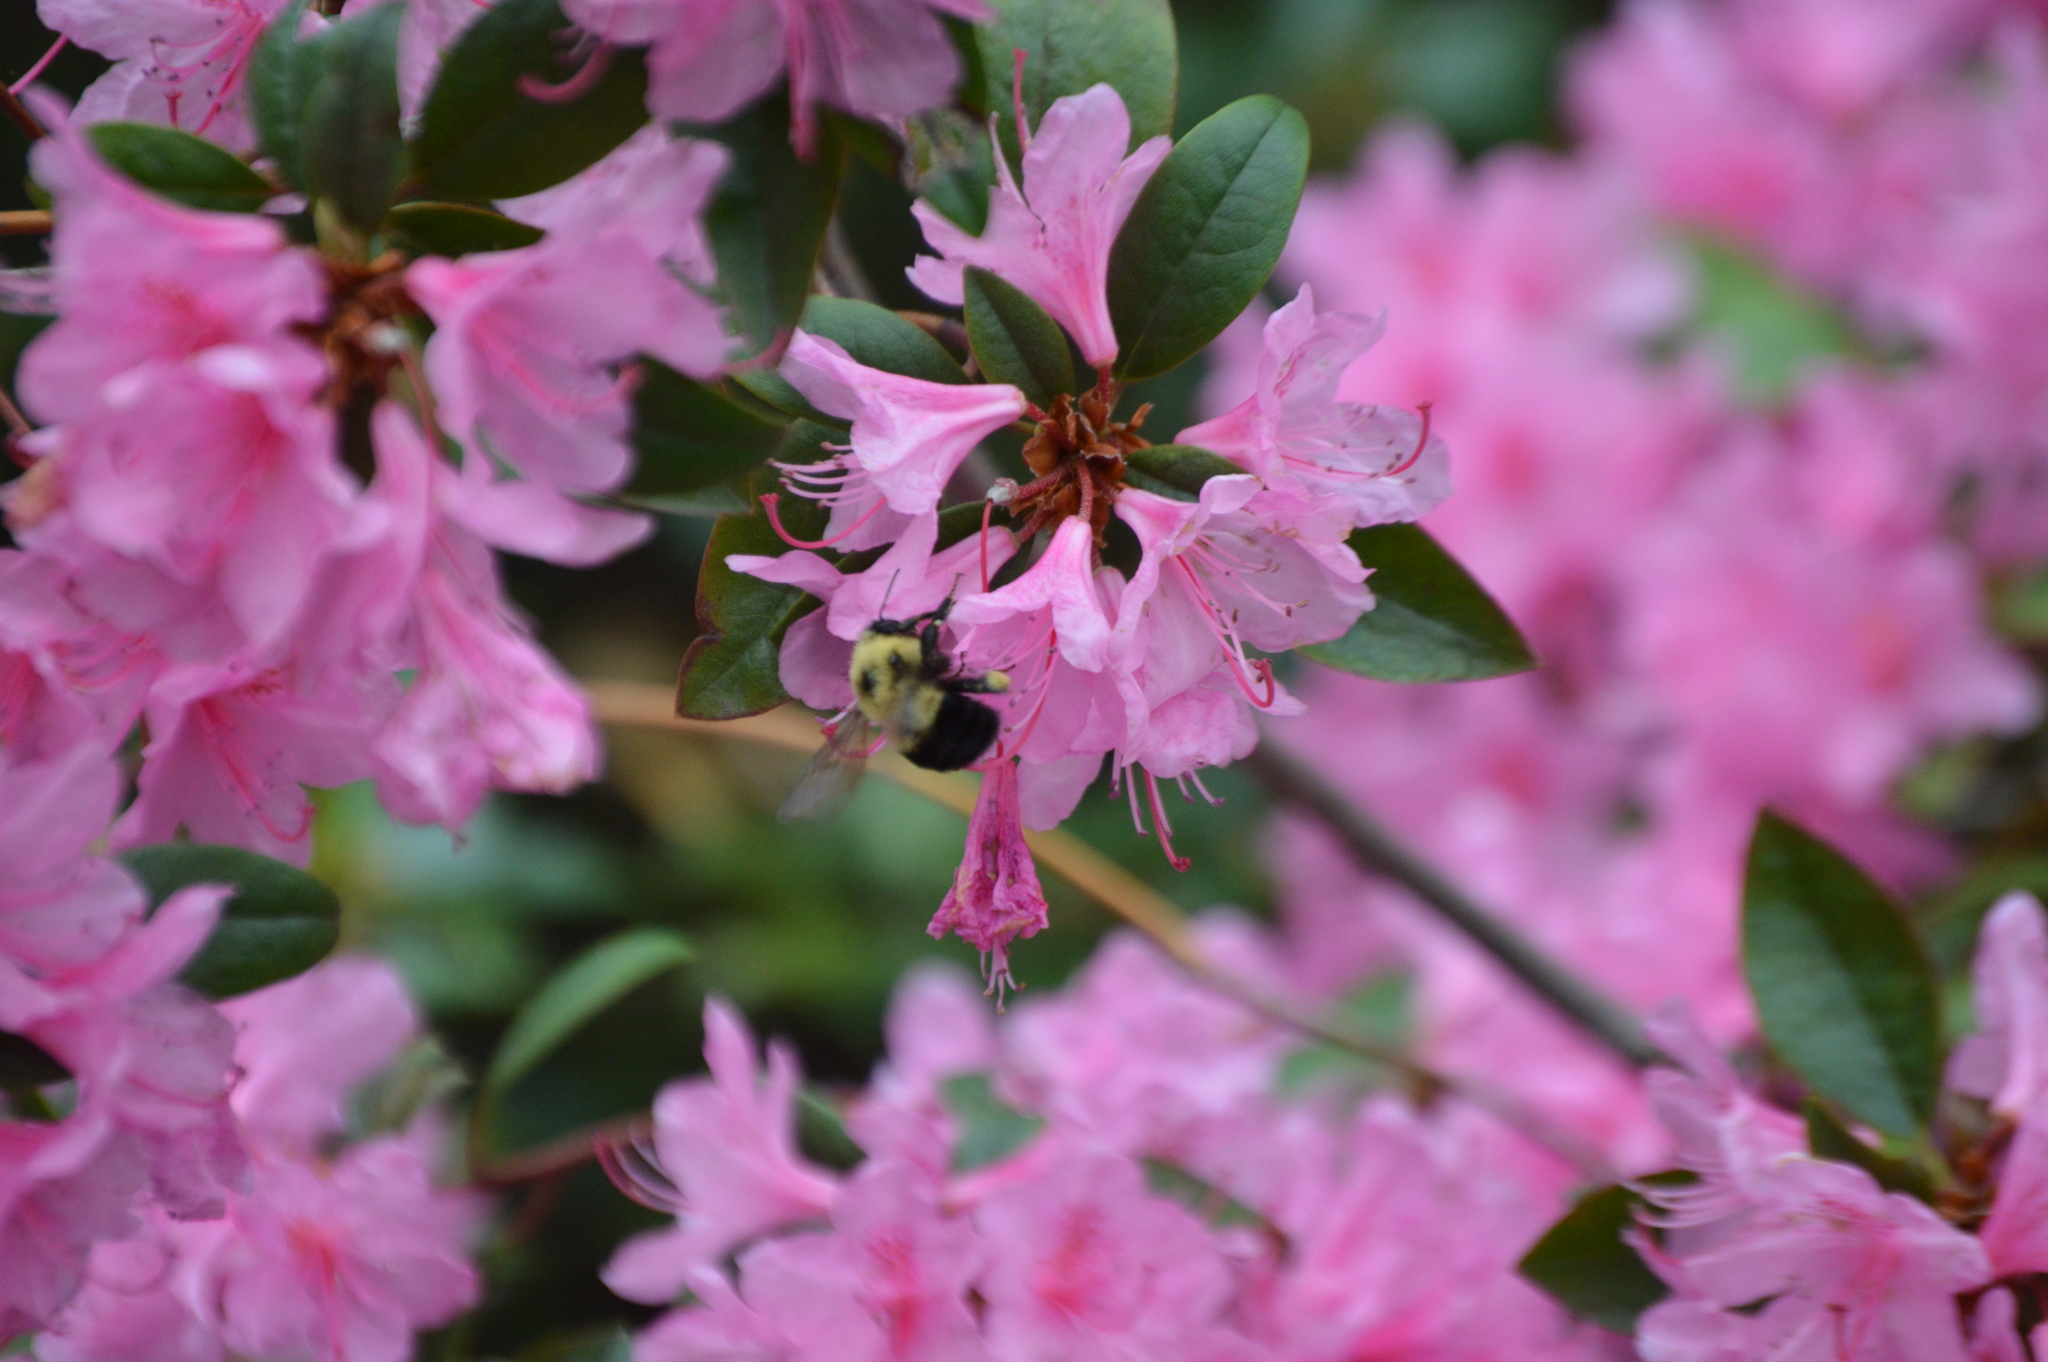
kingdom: Animalia
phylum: Arthropoda
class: Insecta
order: Hymenoptera
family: Apidae
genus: Bombus
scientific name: Bombus bimaculatus
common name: Two-spotted bumble bee
